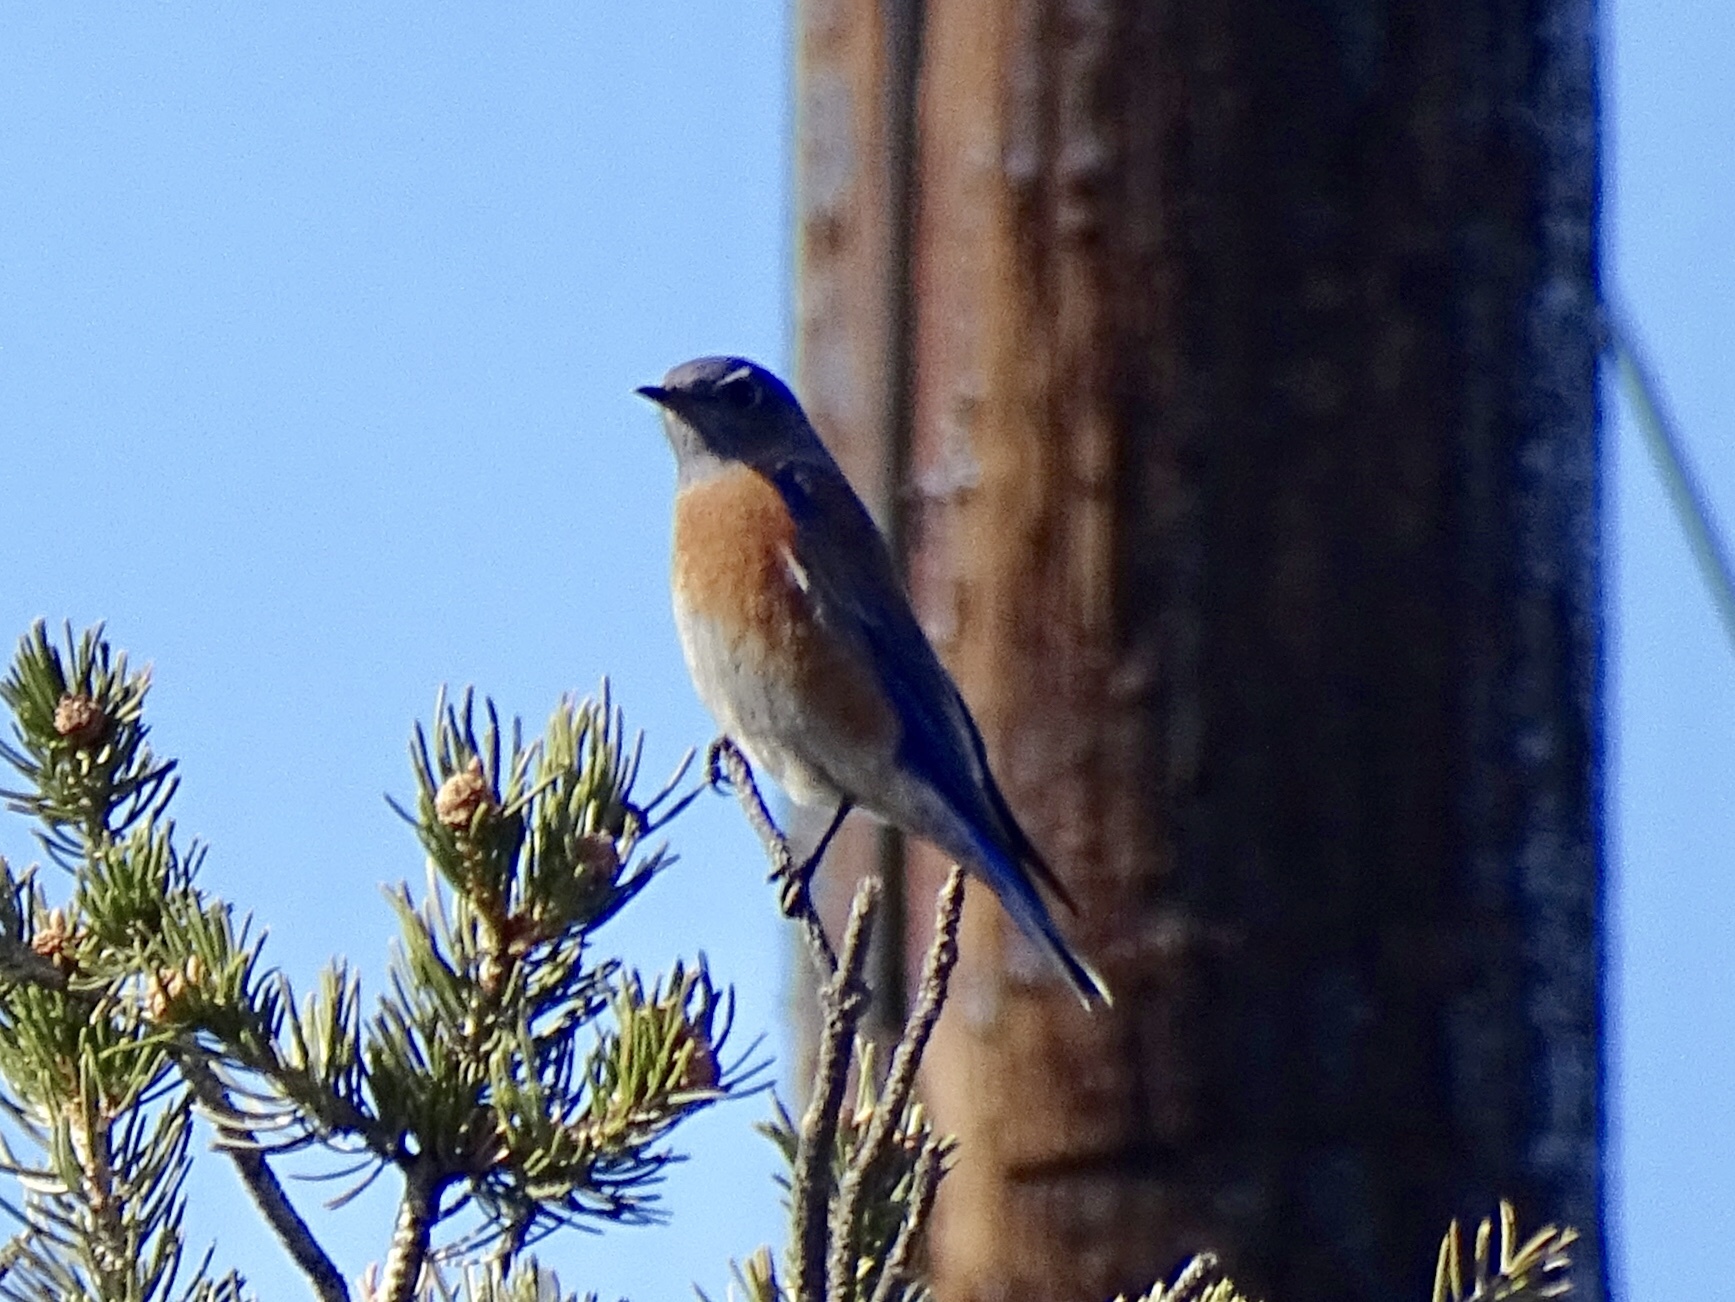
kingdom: Animalia
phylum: Chordata
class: Aves
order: Passeriformes
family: Turdidae
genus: Sialia
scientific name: Sialia mexicana
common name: Western bluebird
